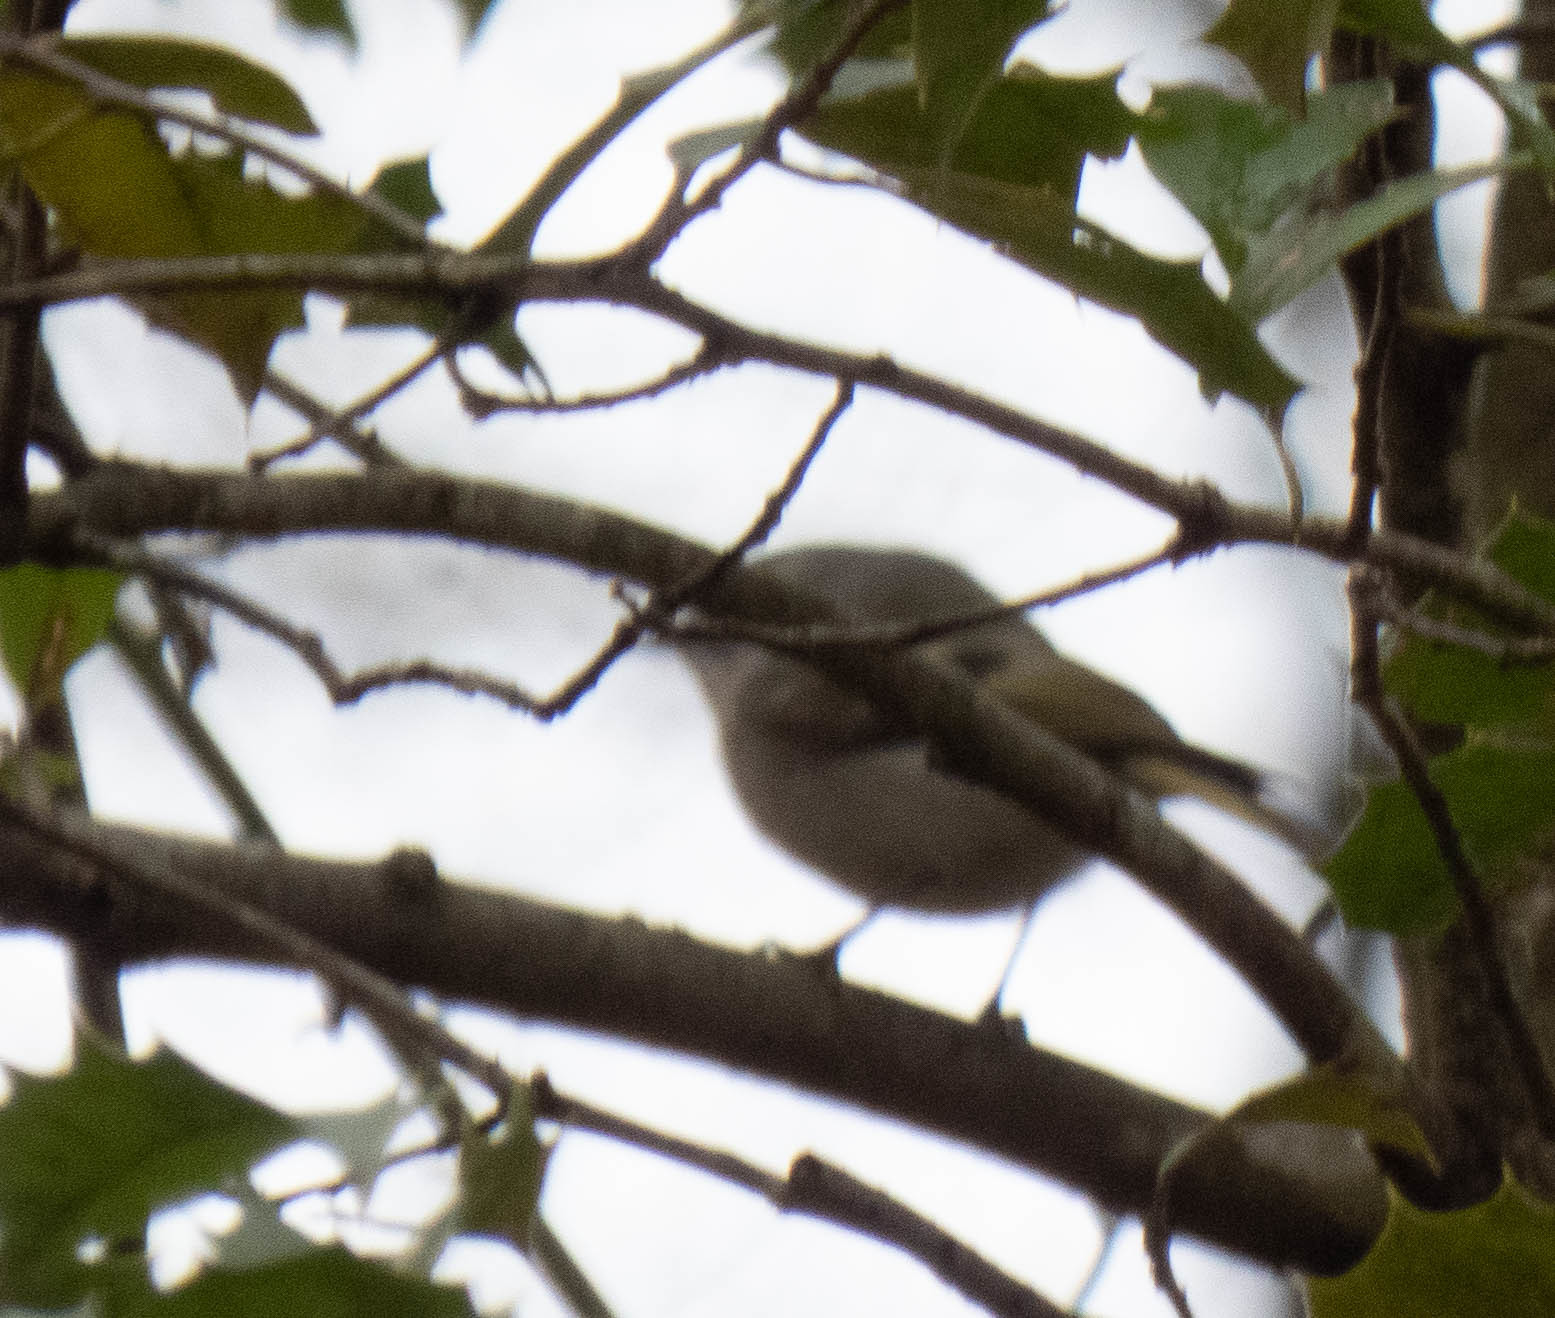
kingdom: Animalia
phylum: Chordata
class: Aves
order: Passeriformes
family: Regulidae
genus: Regulus
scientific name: Regulus satrapa
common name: Golden-crowned kinglet
